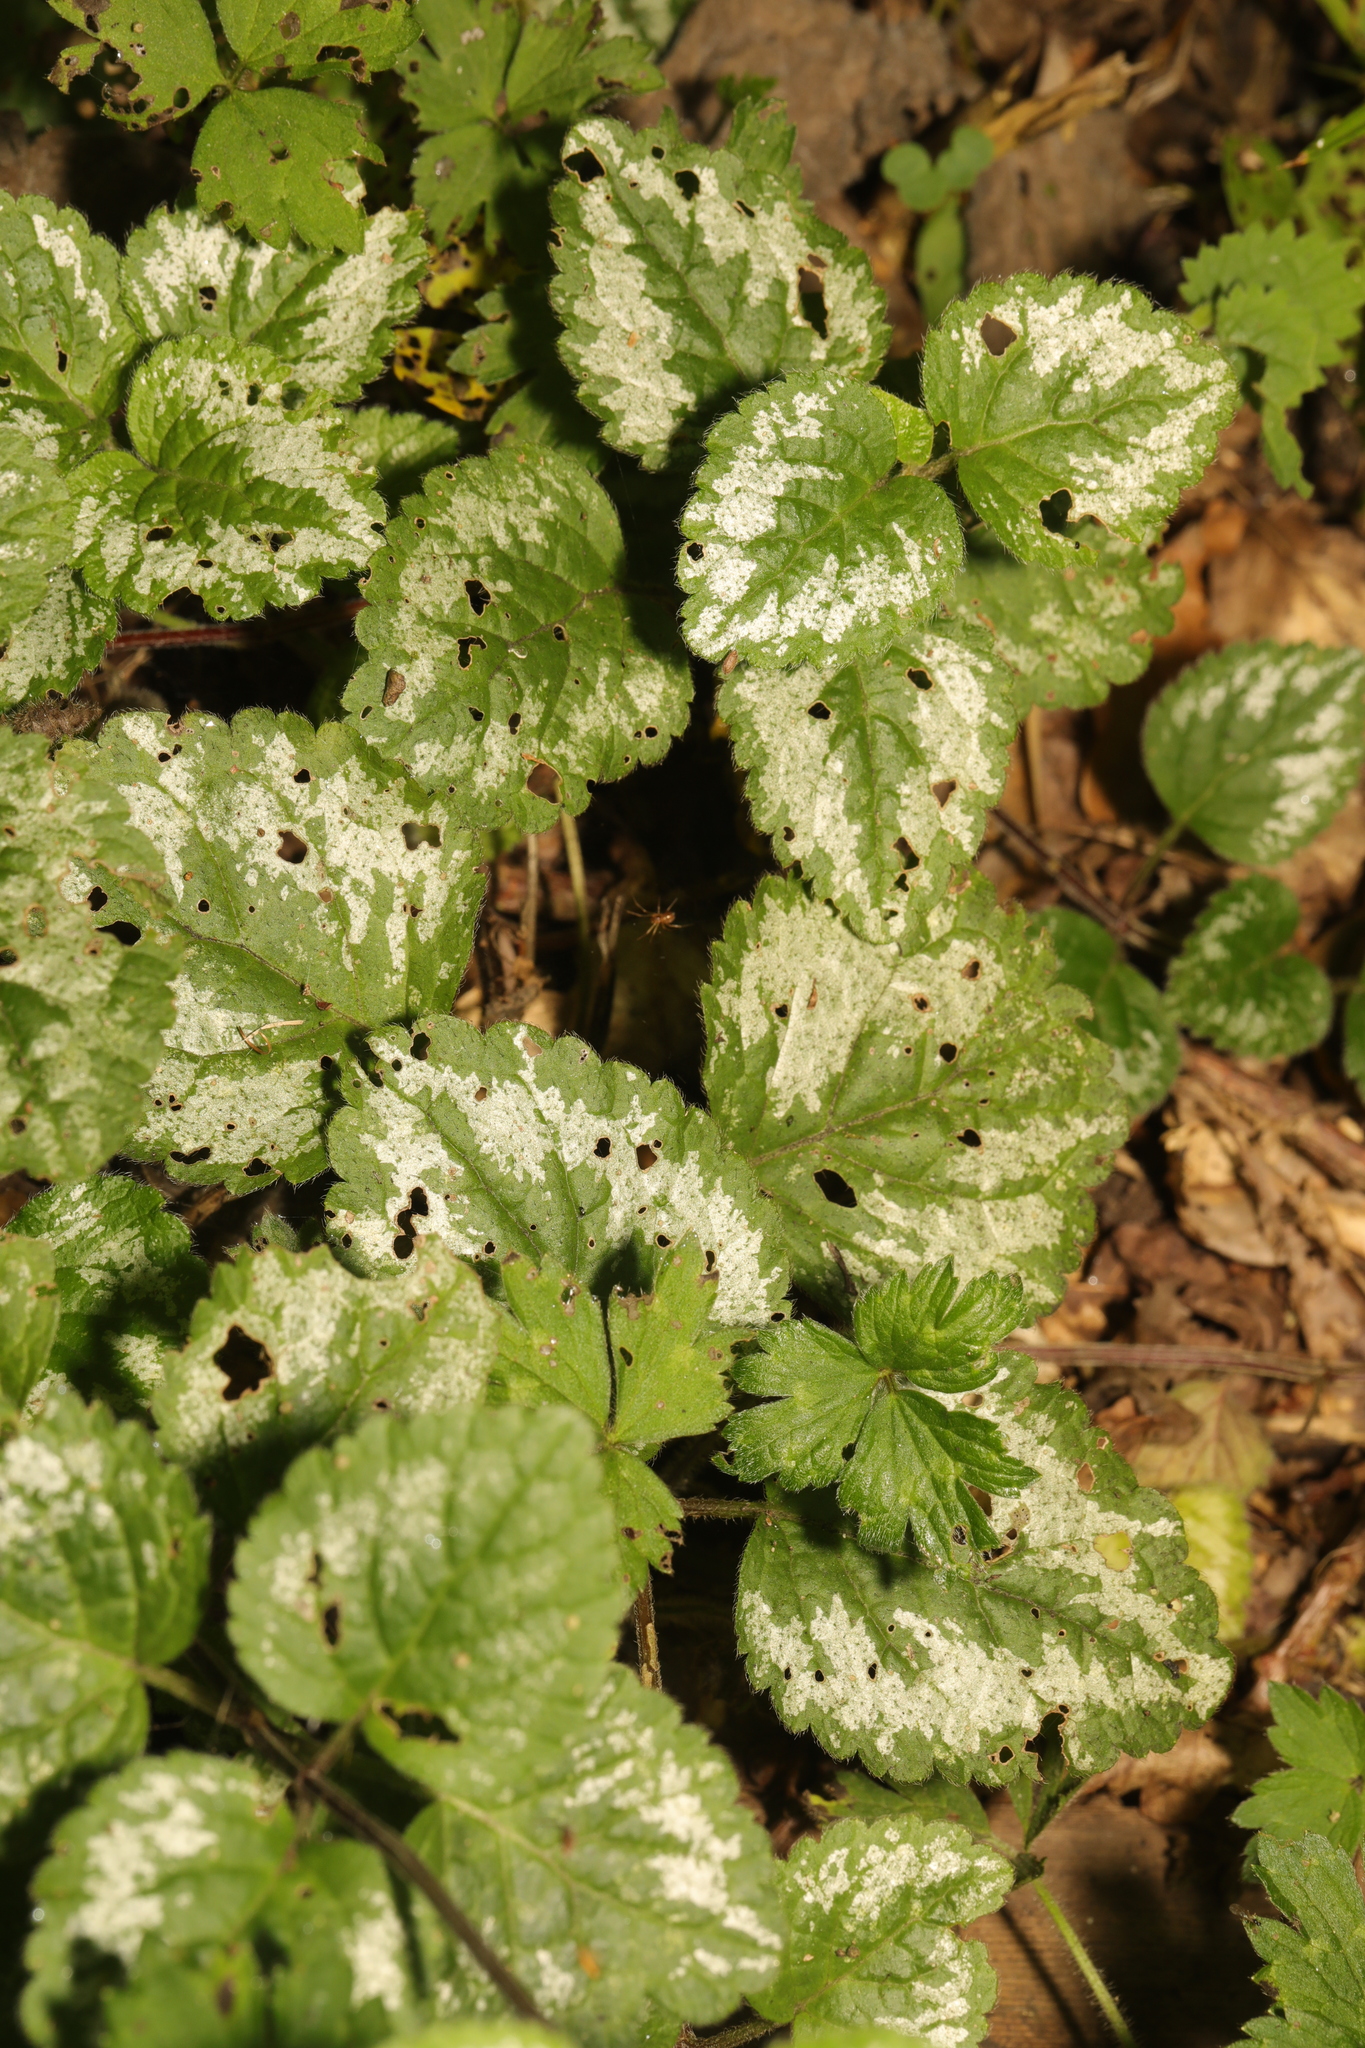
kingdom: Plantae
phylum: Tracheophyta
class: Magnoliopsida
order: Lamiales
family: Lamiaceae
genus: Lamium
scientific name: Lamium galeobdolon
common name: Yellow archangel
